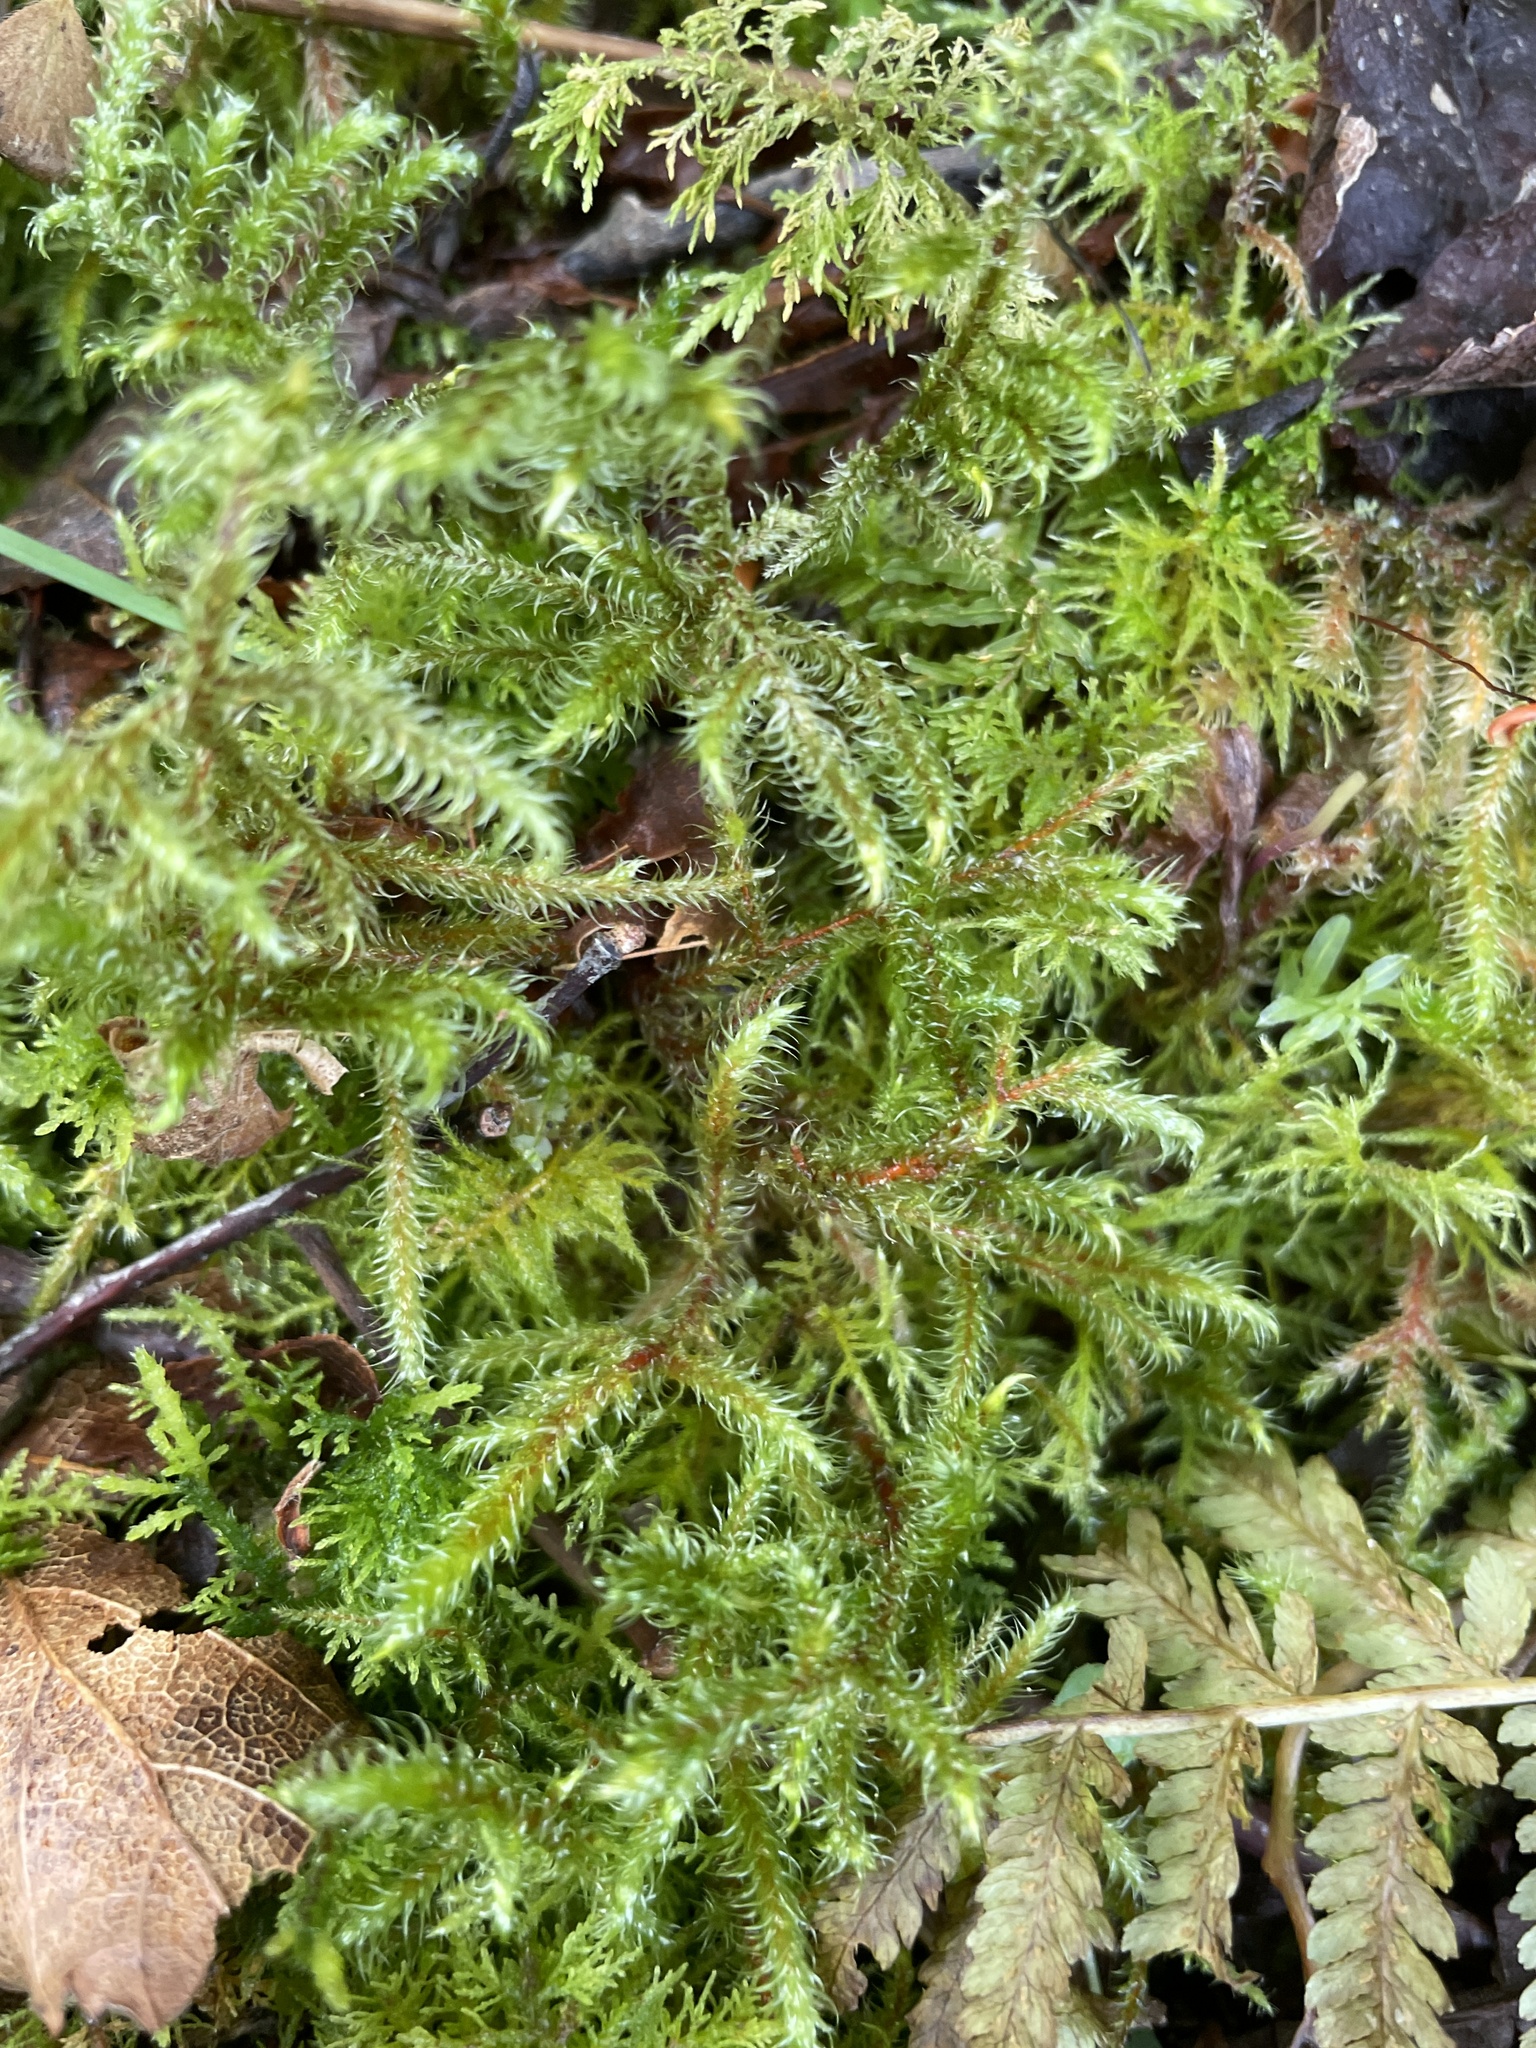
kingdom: Plantae
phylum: Bryophyta
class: Bryopsida
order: Hypnales
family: Hylocomiaceae
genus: Rhytidiadelphus
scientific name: Rhytidiadelphus loreus
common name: Lanky moss
